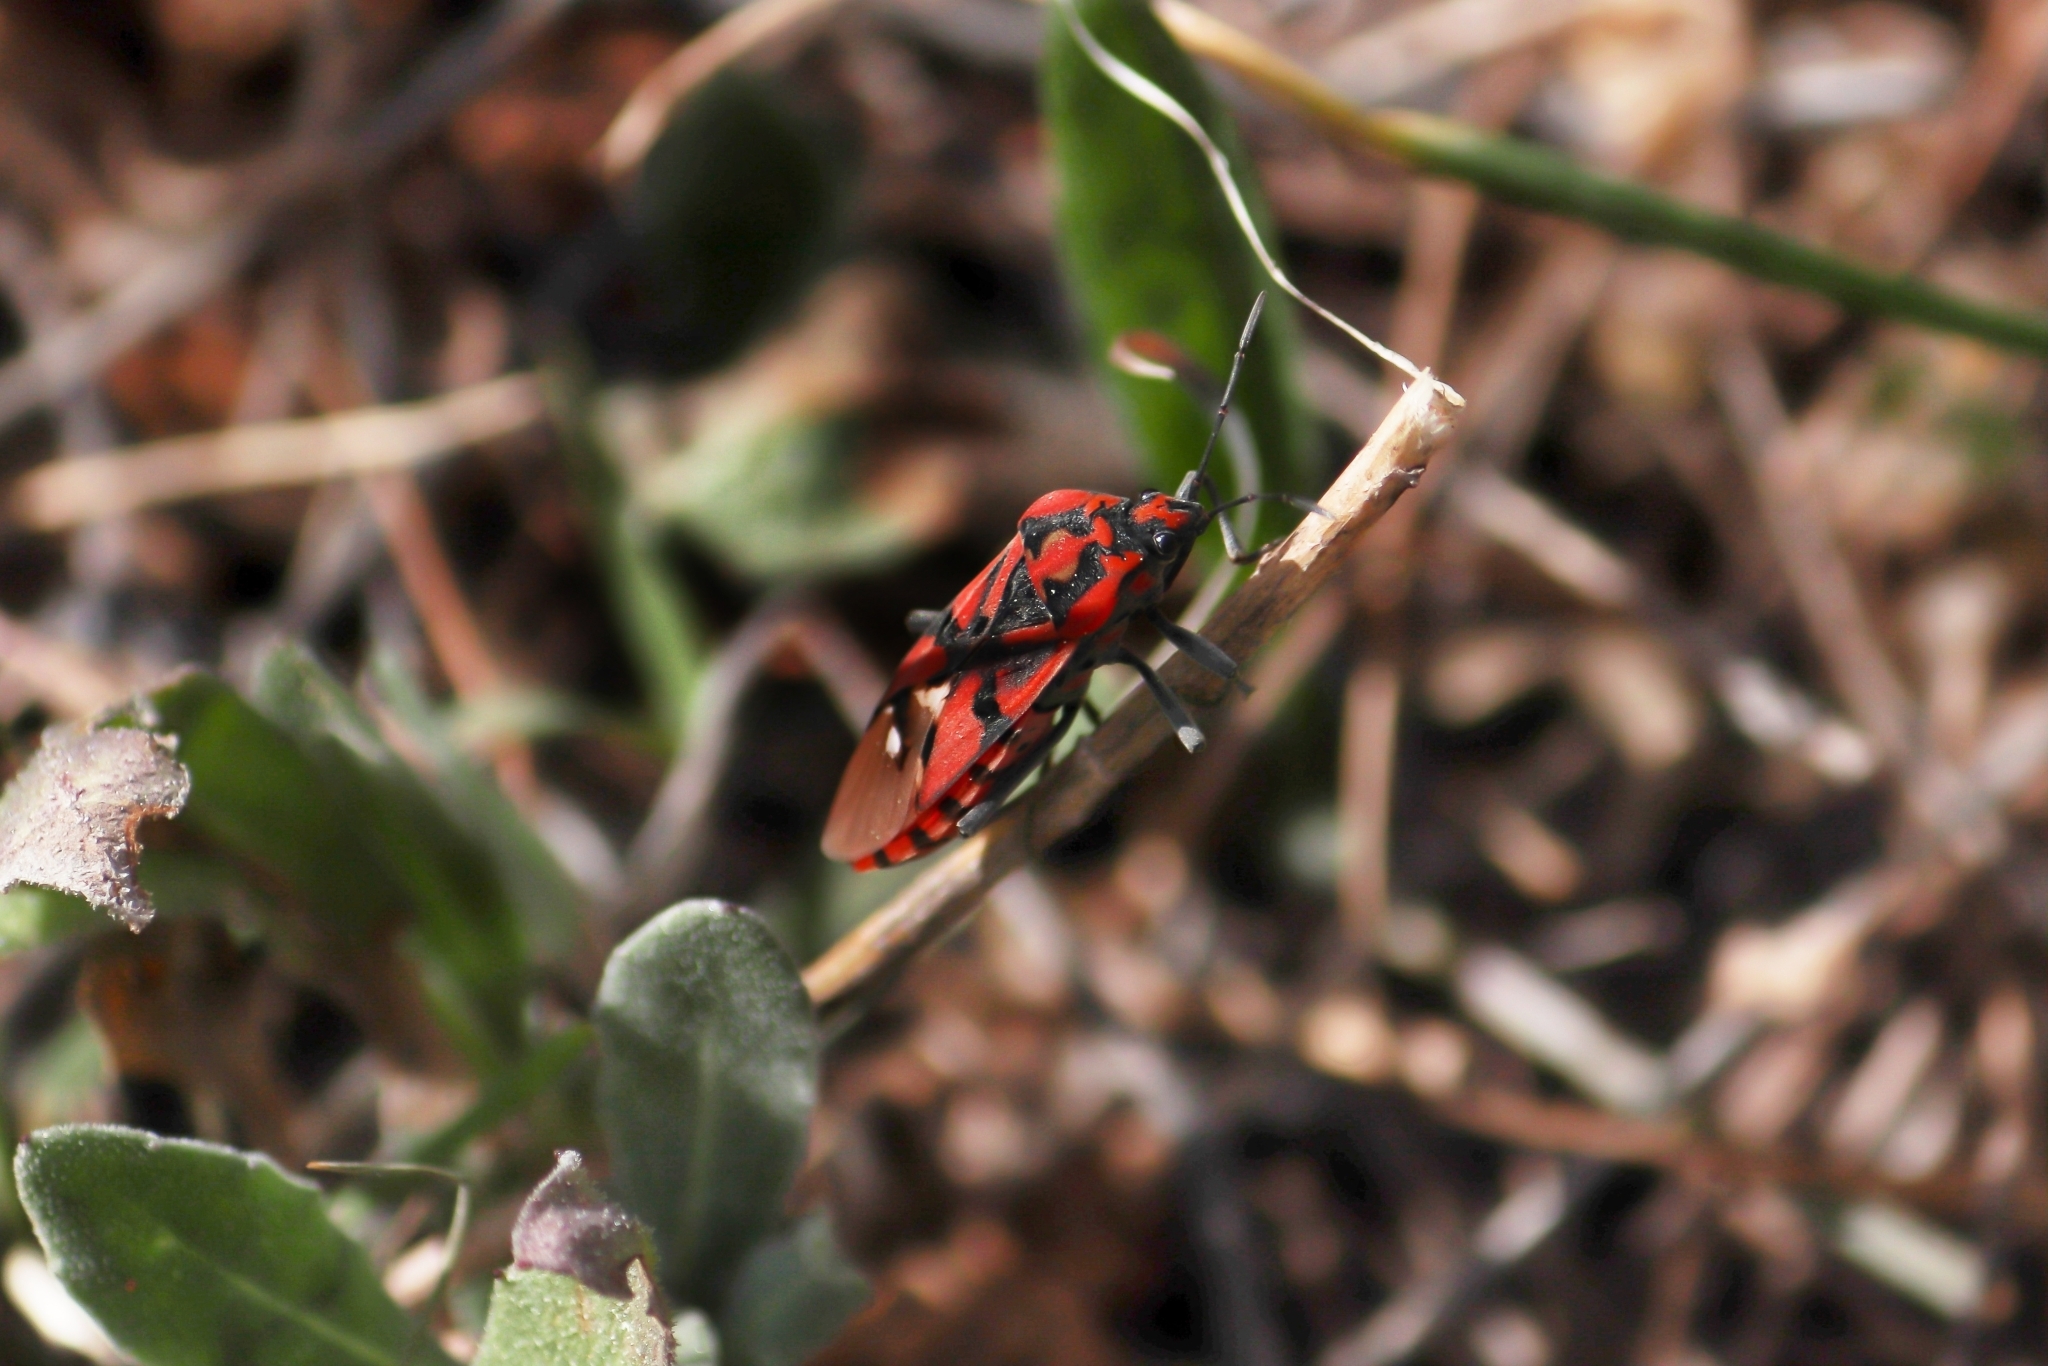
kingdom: Animalia
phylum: Arthropoda
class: Insecta
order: Hemiptera
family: Lygaeidae
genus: Spilostethus
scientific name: Spilostethus pandurus
